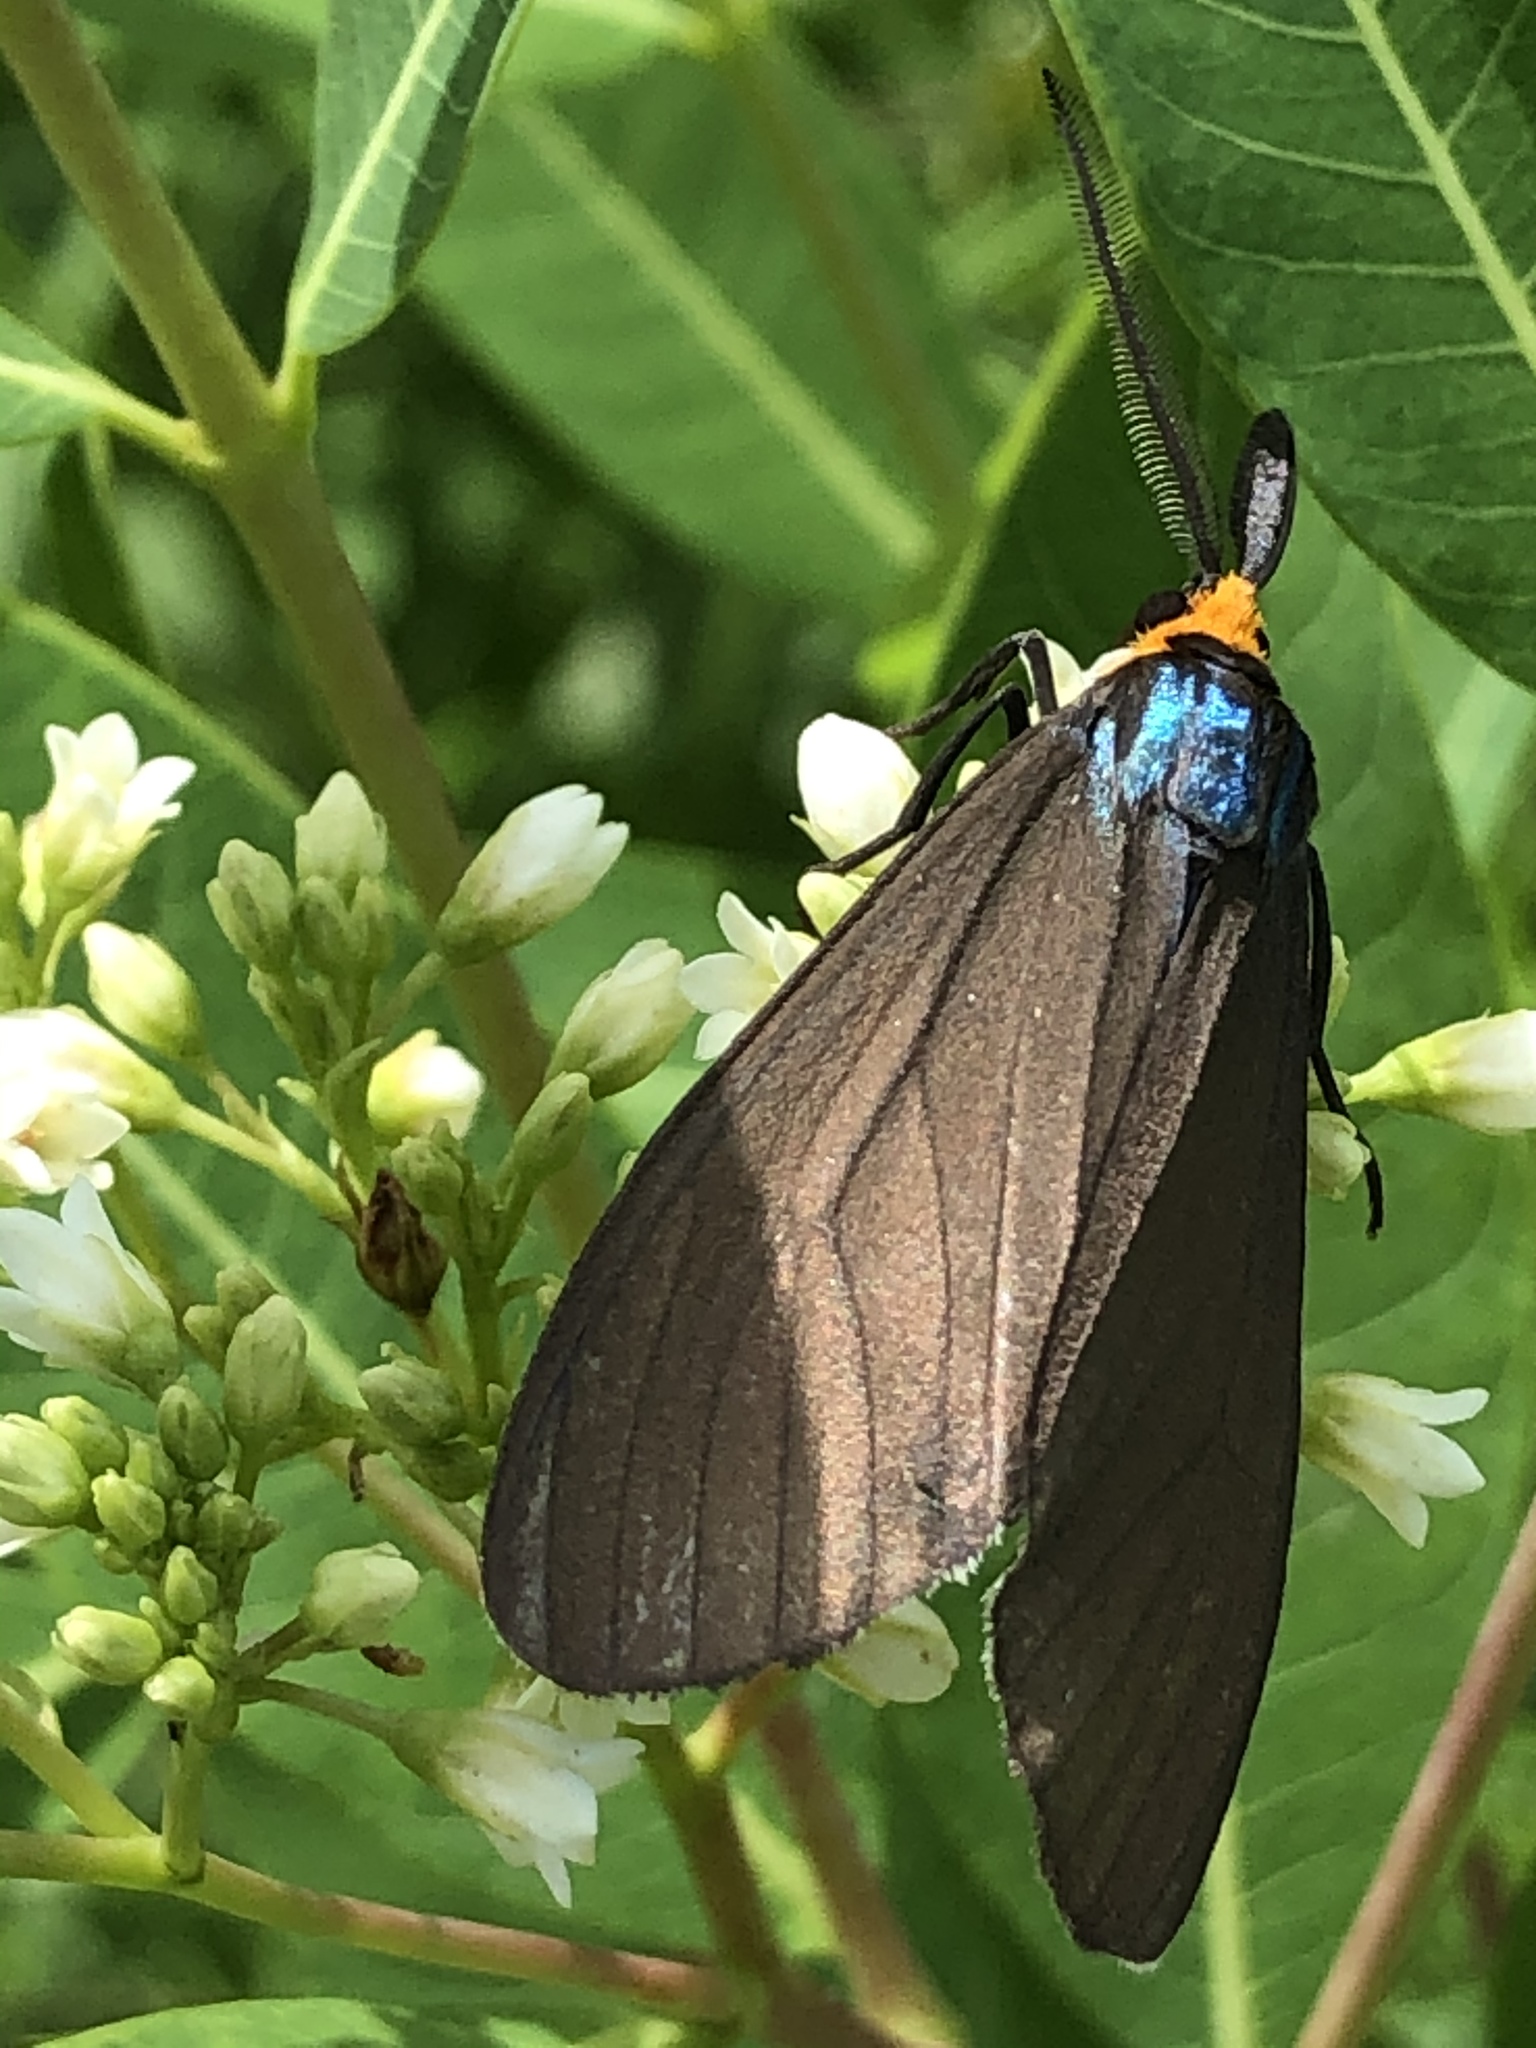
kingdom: Animalia
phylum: Arthropoda
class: Insecta
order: Lepidoptera
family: Erebidae
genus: Ctenucha
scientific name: Ctenucha virginica
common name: Virginia ctenucha moth
